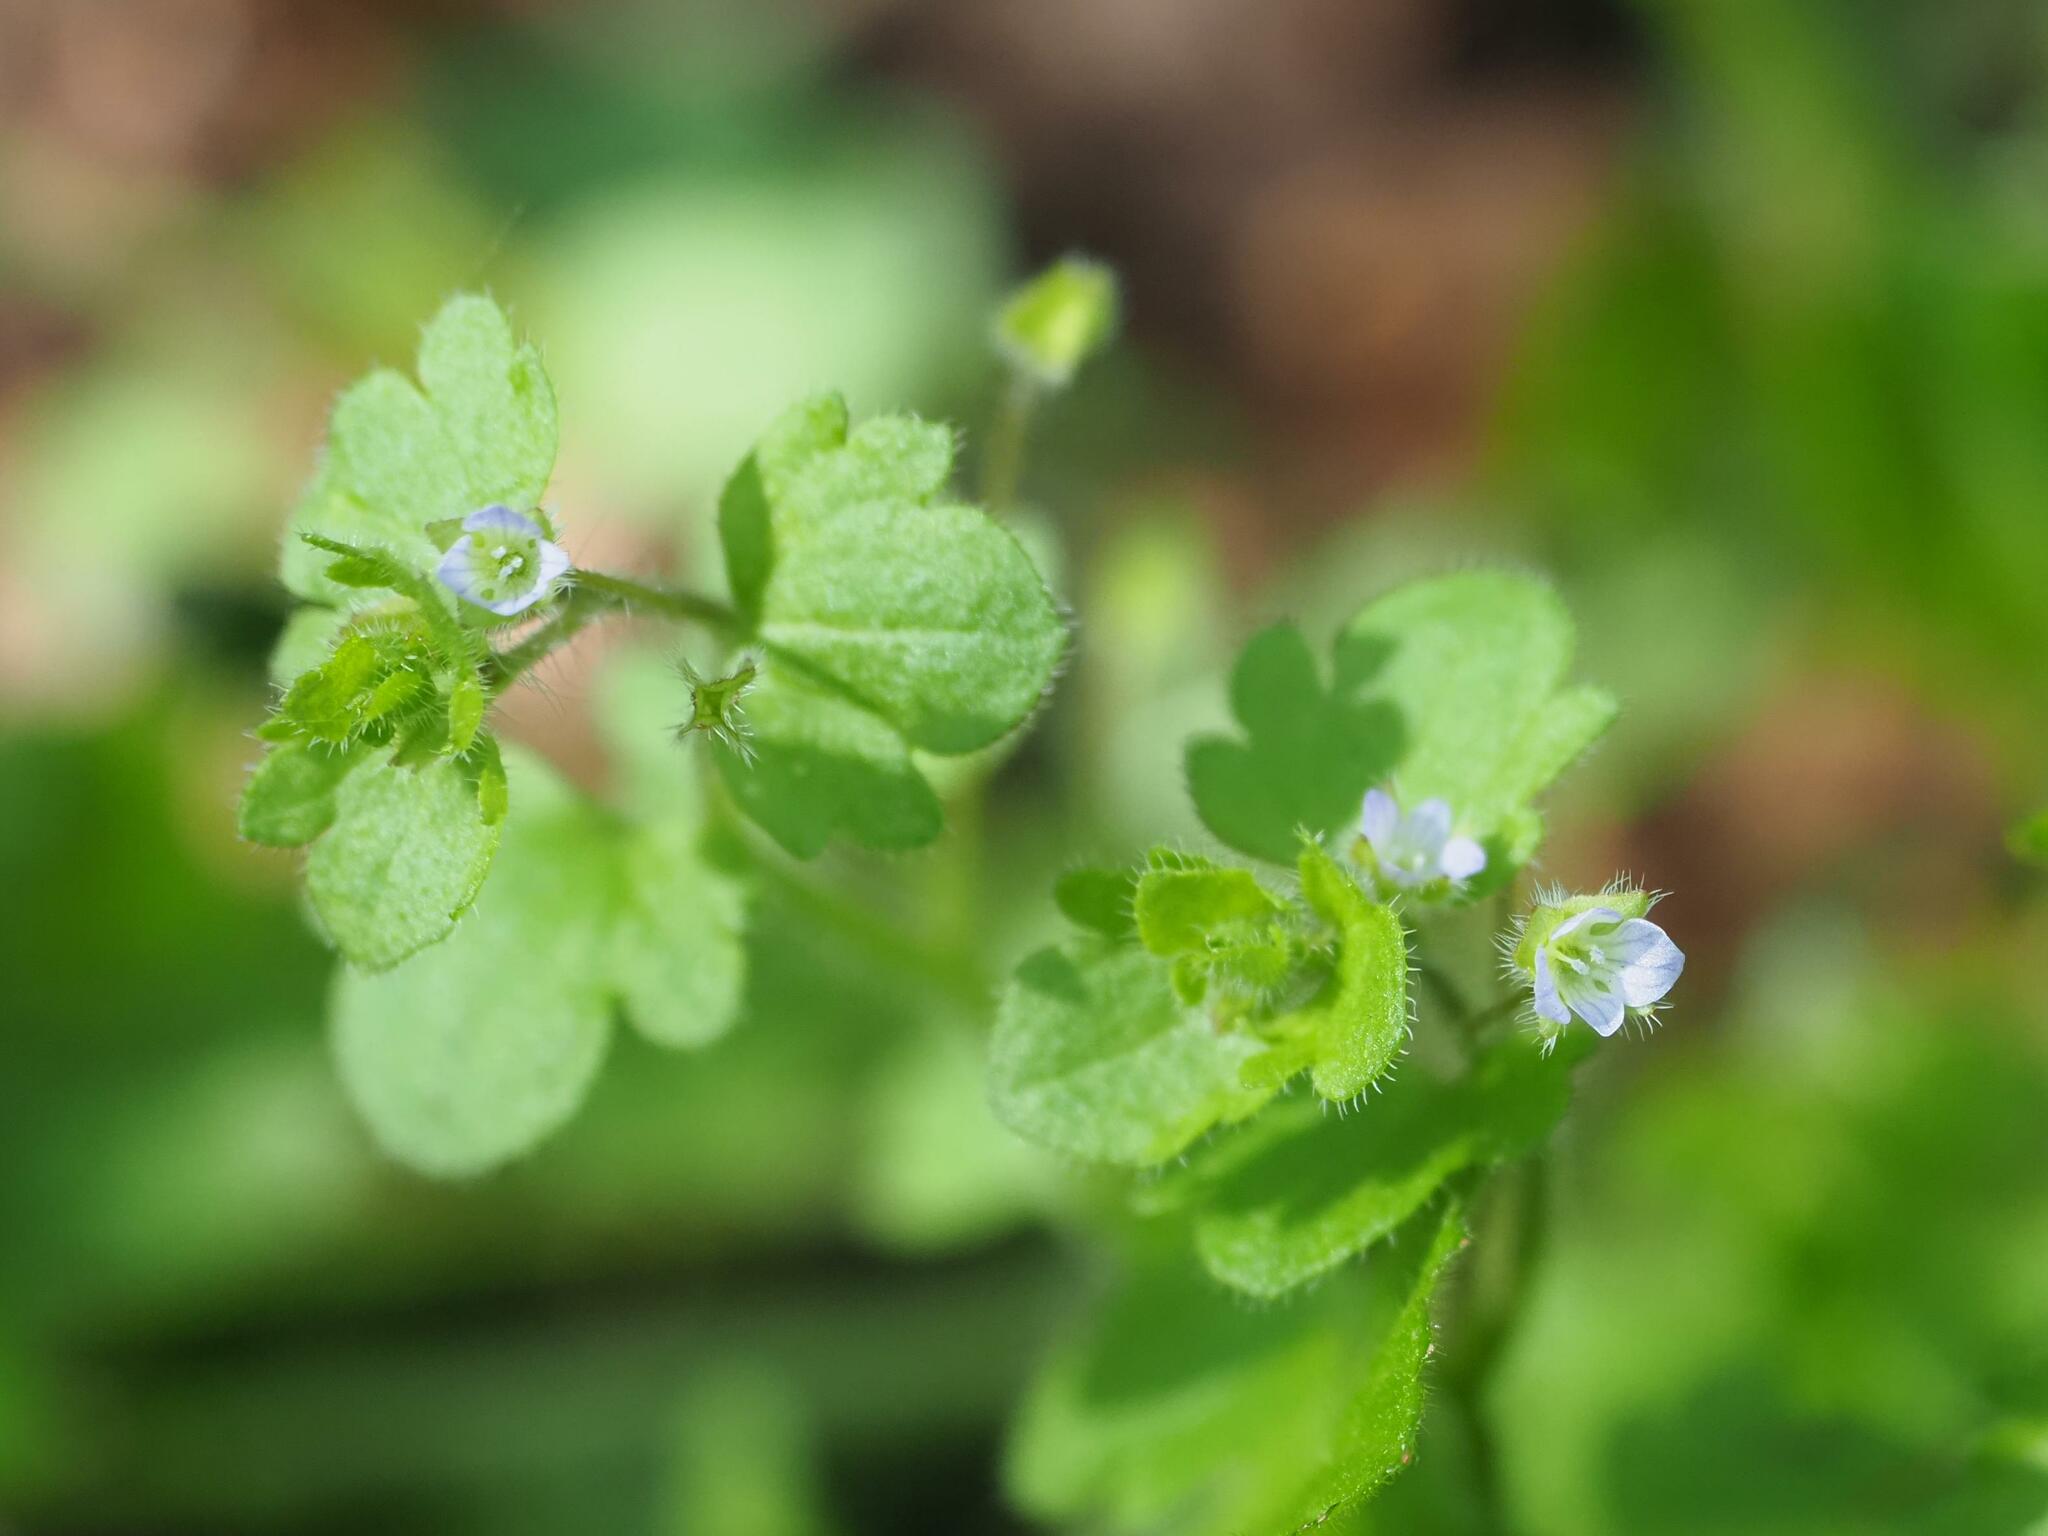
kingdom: Plantae
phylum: Tracheophyta
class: Magnoliopsida
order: Lamiales
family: Plantaginaceae
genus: Veronica
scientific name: Veronica sublobata
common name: False ivy-leaved speedwell
